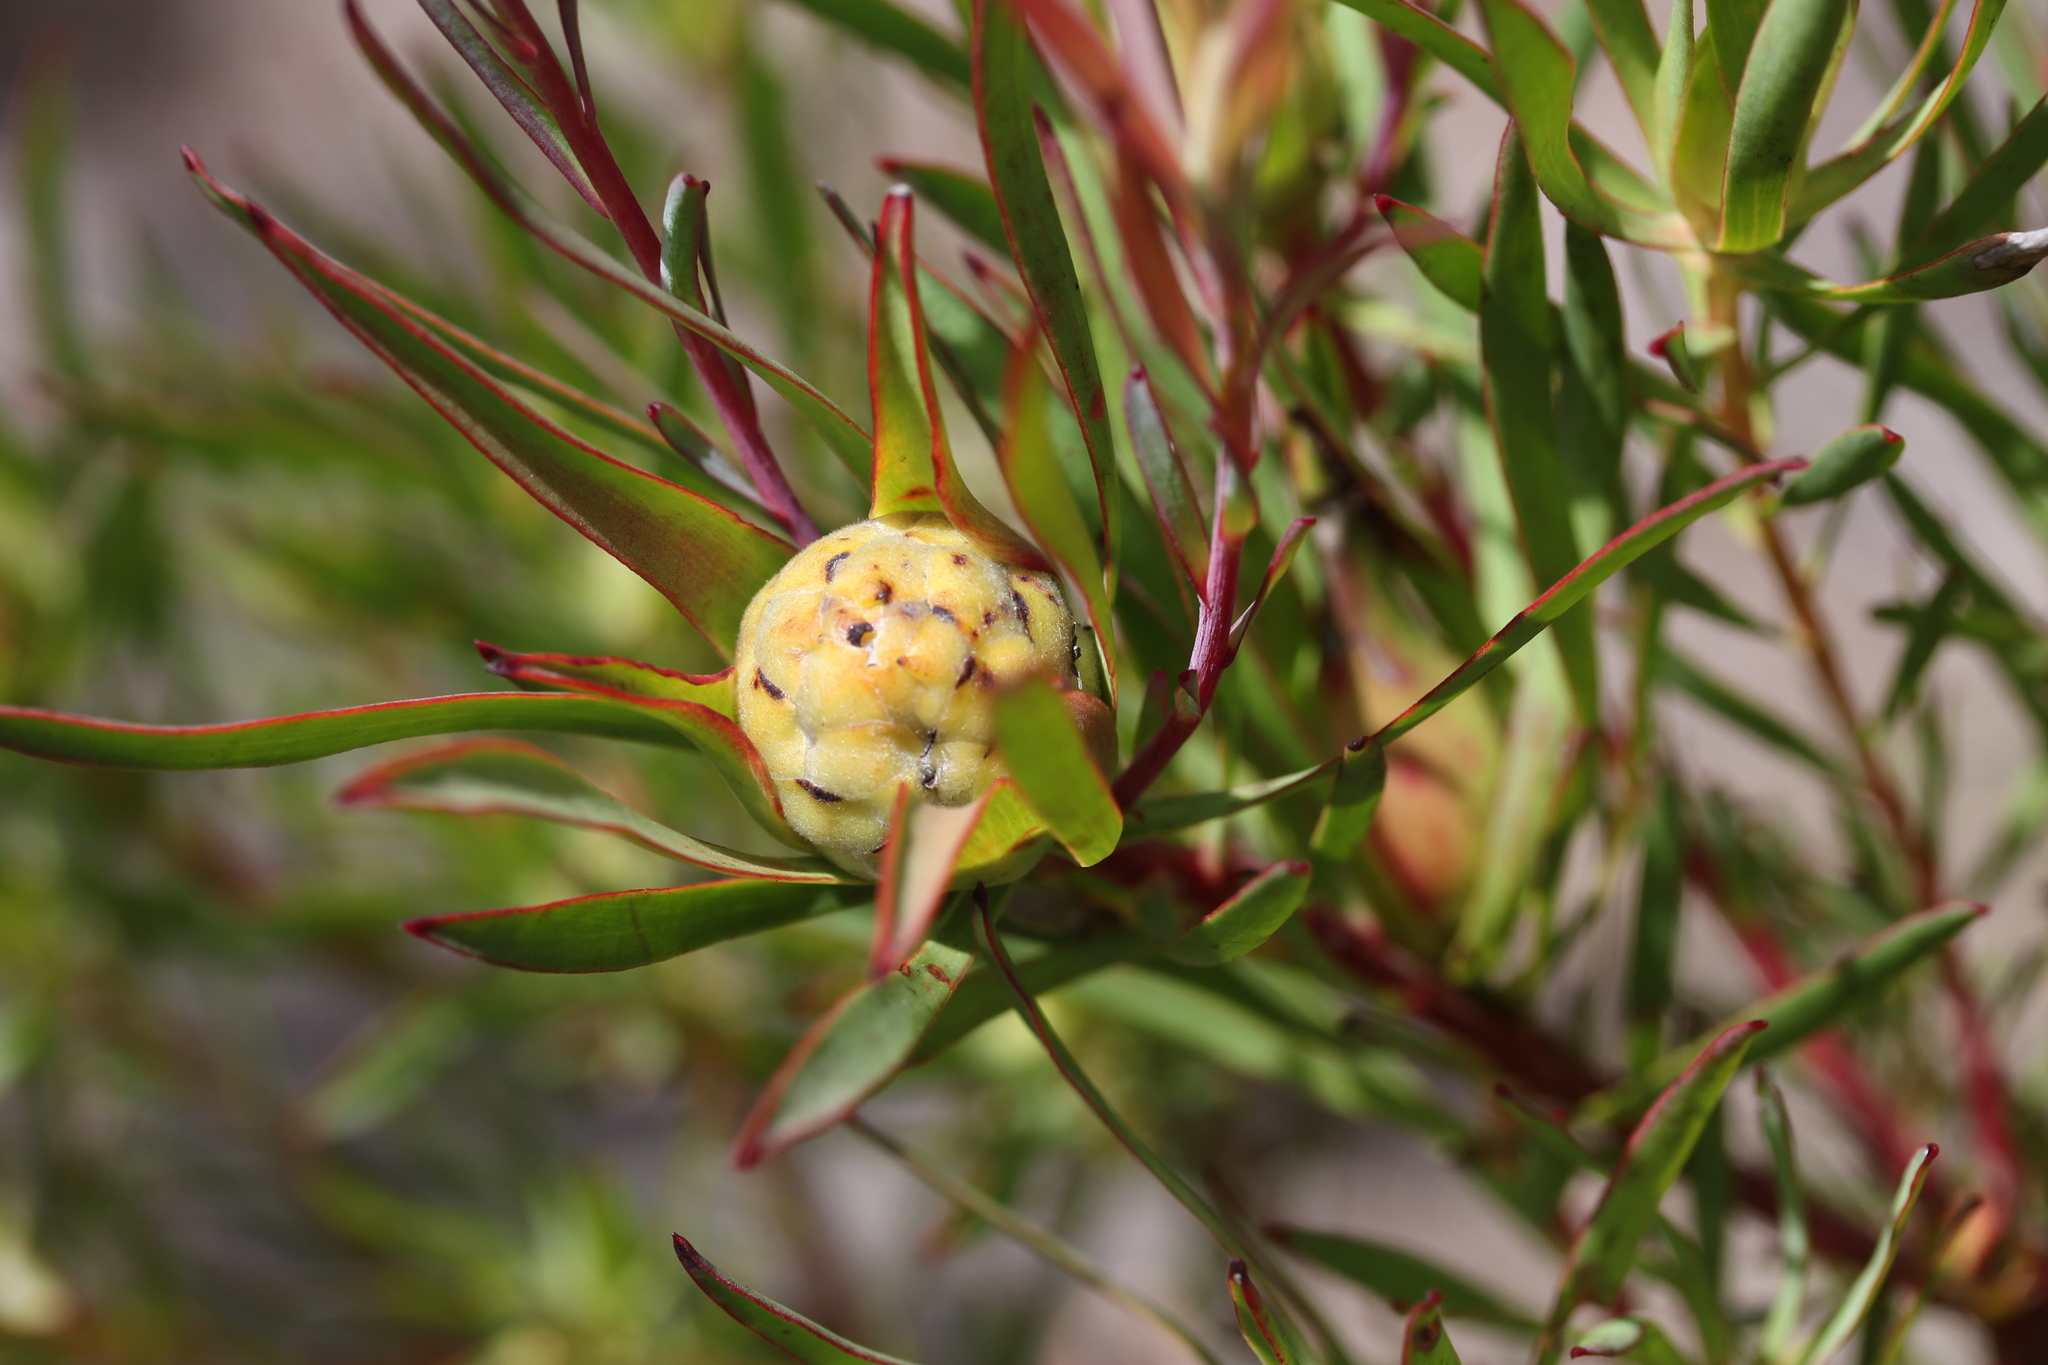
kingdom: Plantae
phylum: Tracheophyta
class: Magnoliopsida
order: Proteales
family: Proteaceae
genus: Leucadendron
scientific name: Leucadendron salignum
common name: Common sunshine conebush
